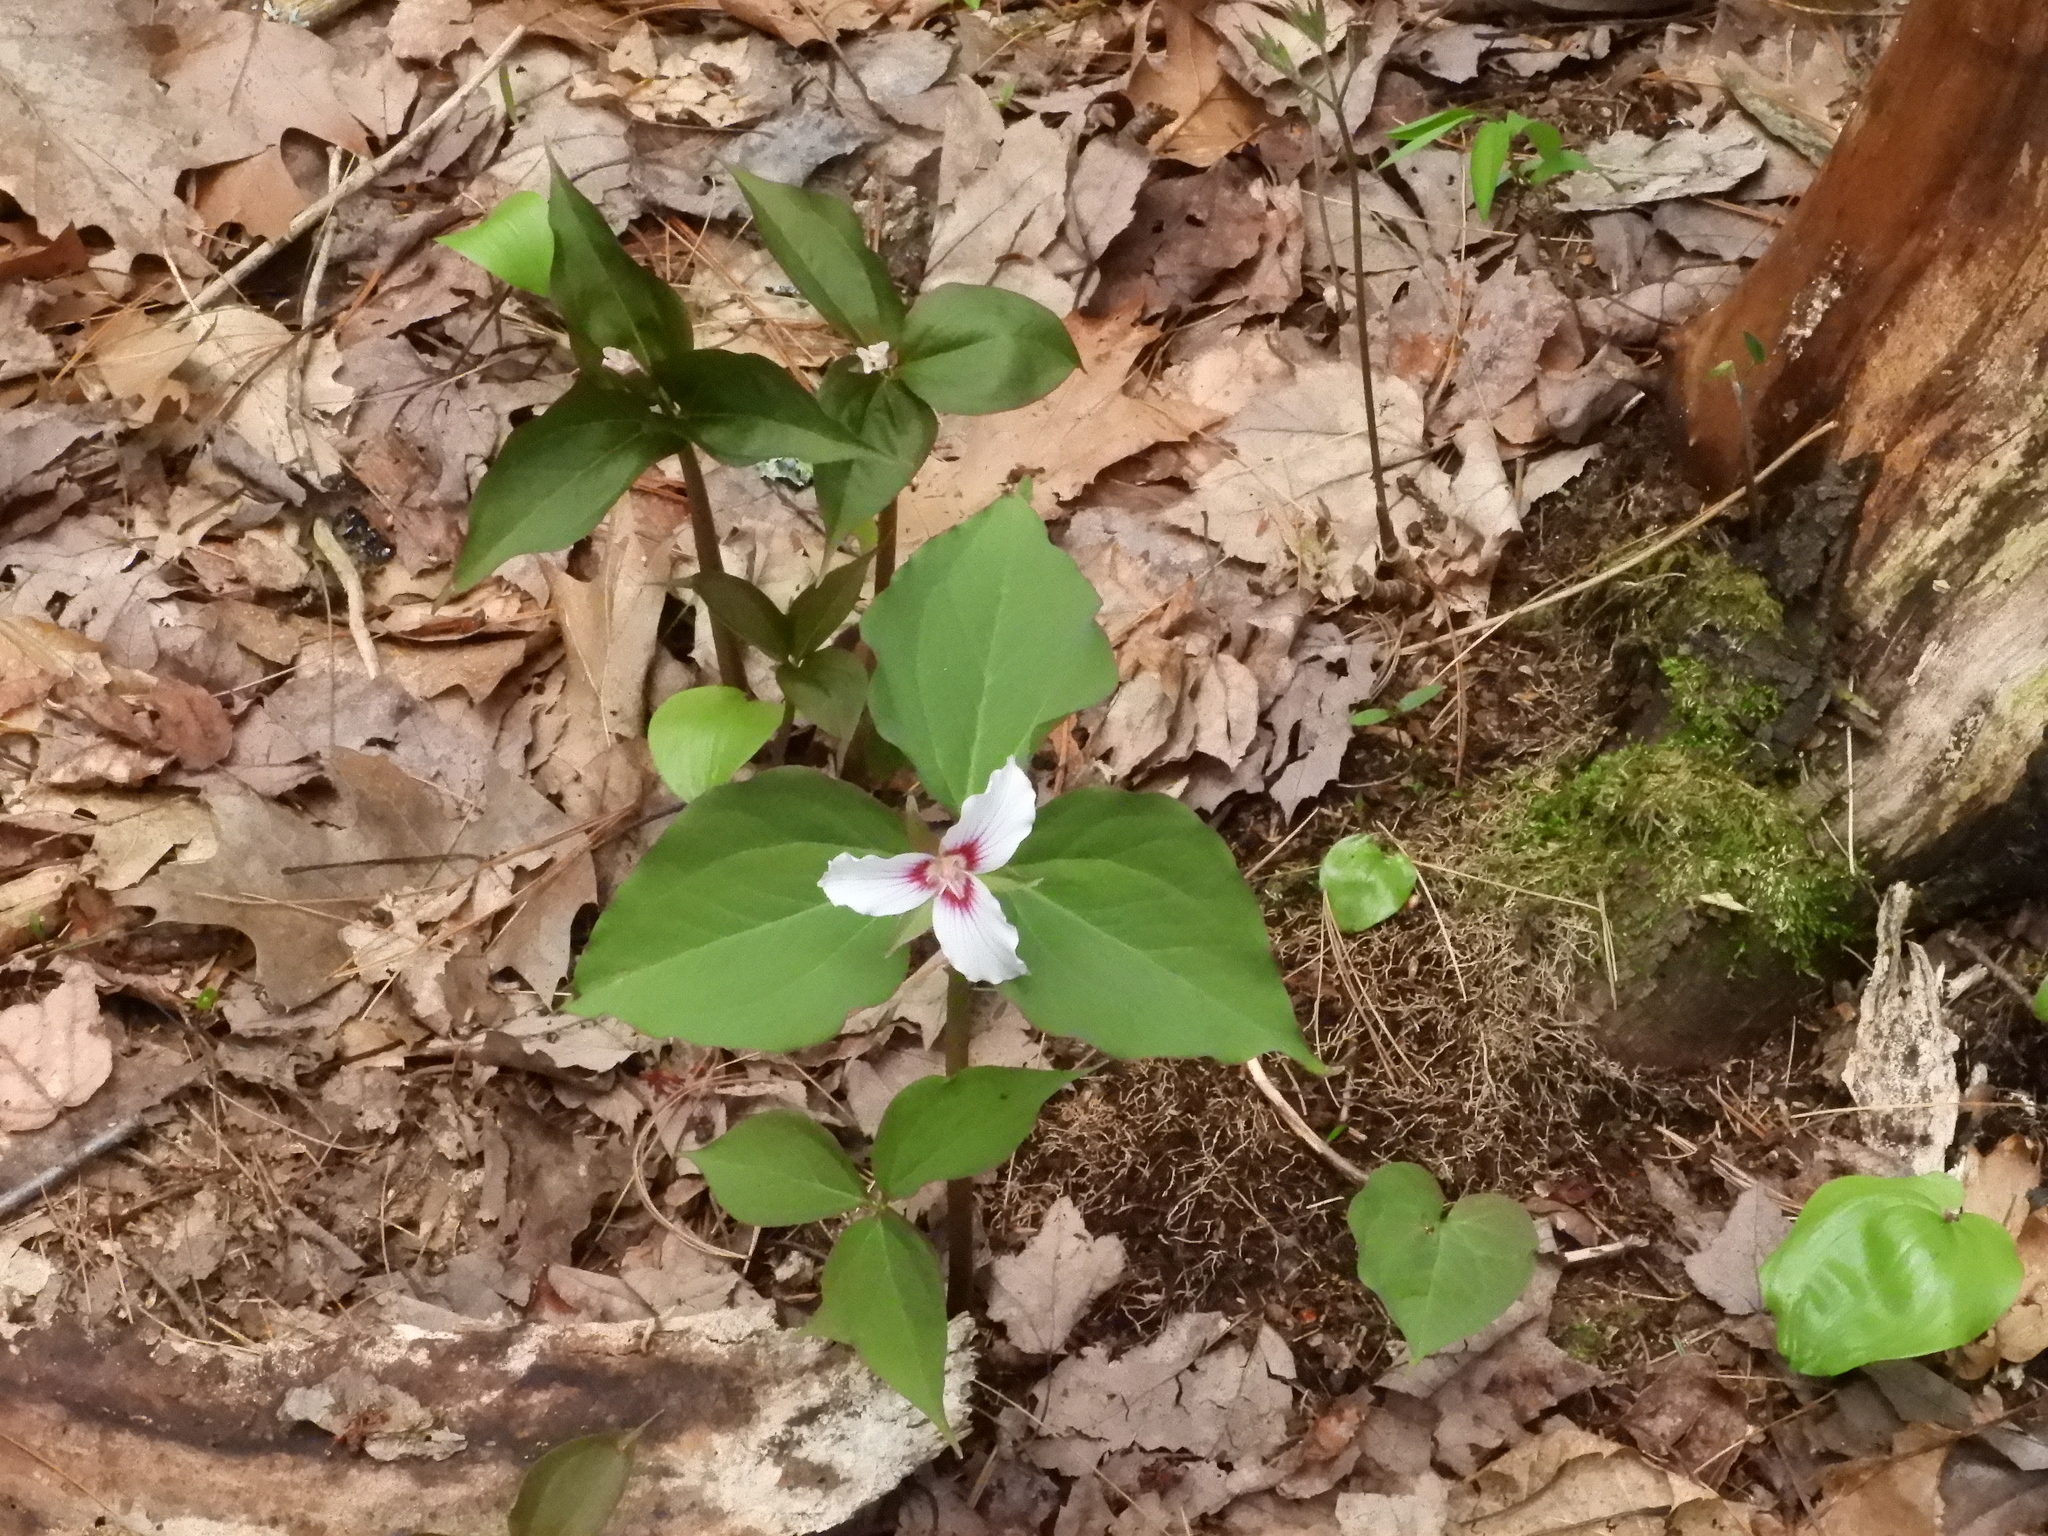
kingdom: Plantae
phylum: Tracheophyta
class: Liliopsida
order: Liliales
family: Melanthiaceae
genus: Trillium
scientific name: Trillium undulatum
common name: Paint trillium
